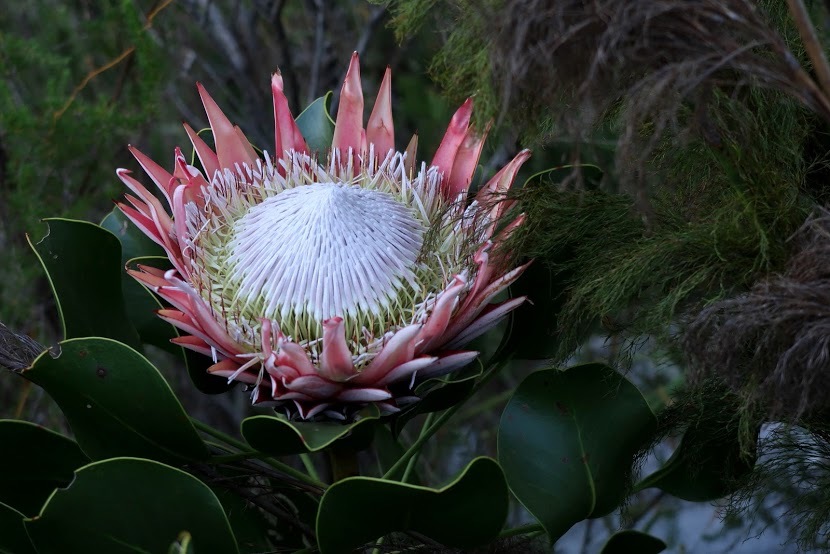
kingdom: Plantae
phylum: Tracheophyta
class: Magnoliopsida
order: Proteales
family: Proteaceae
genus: Protea
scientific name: Protea cynaroides
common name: King protea
